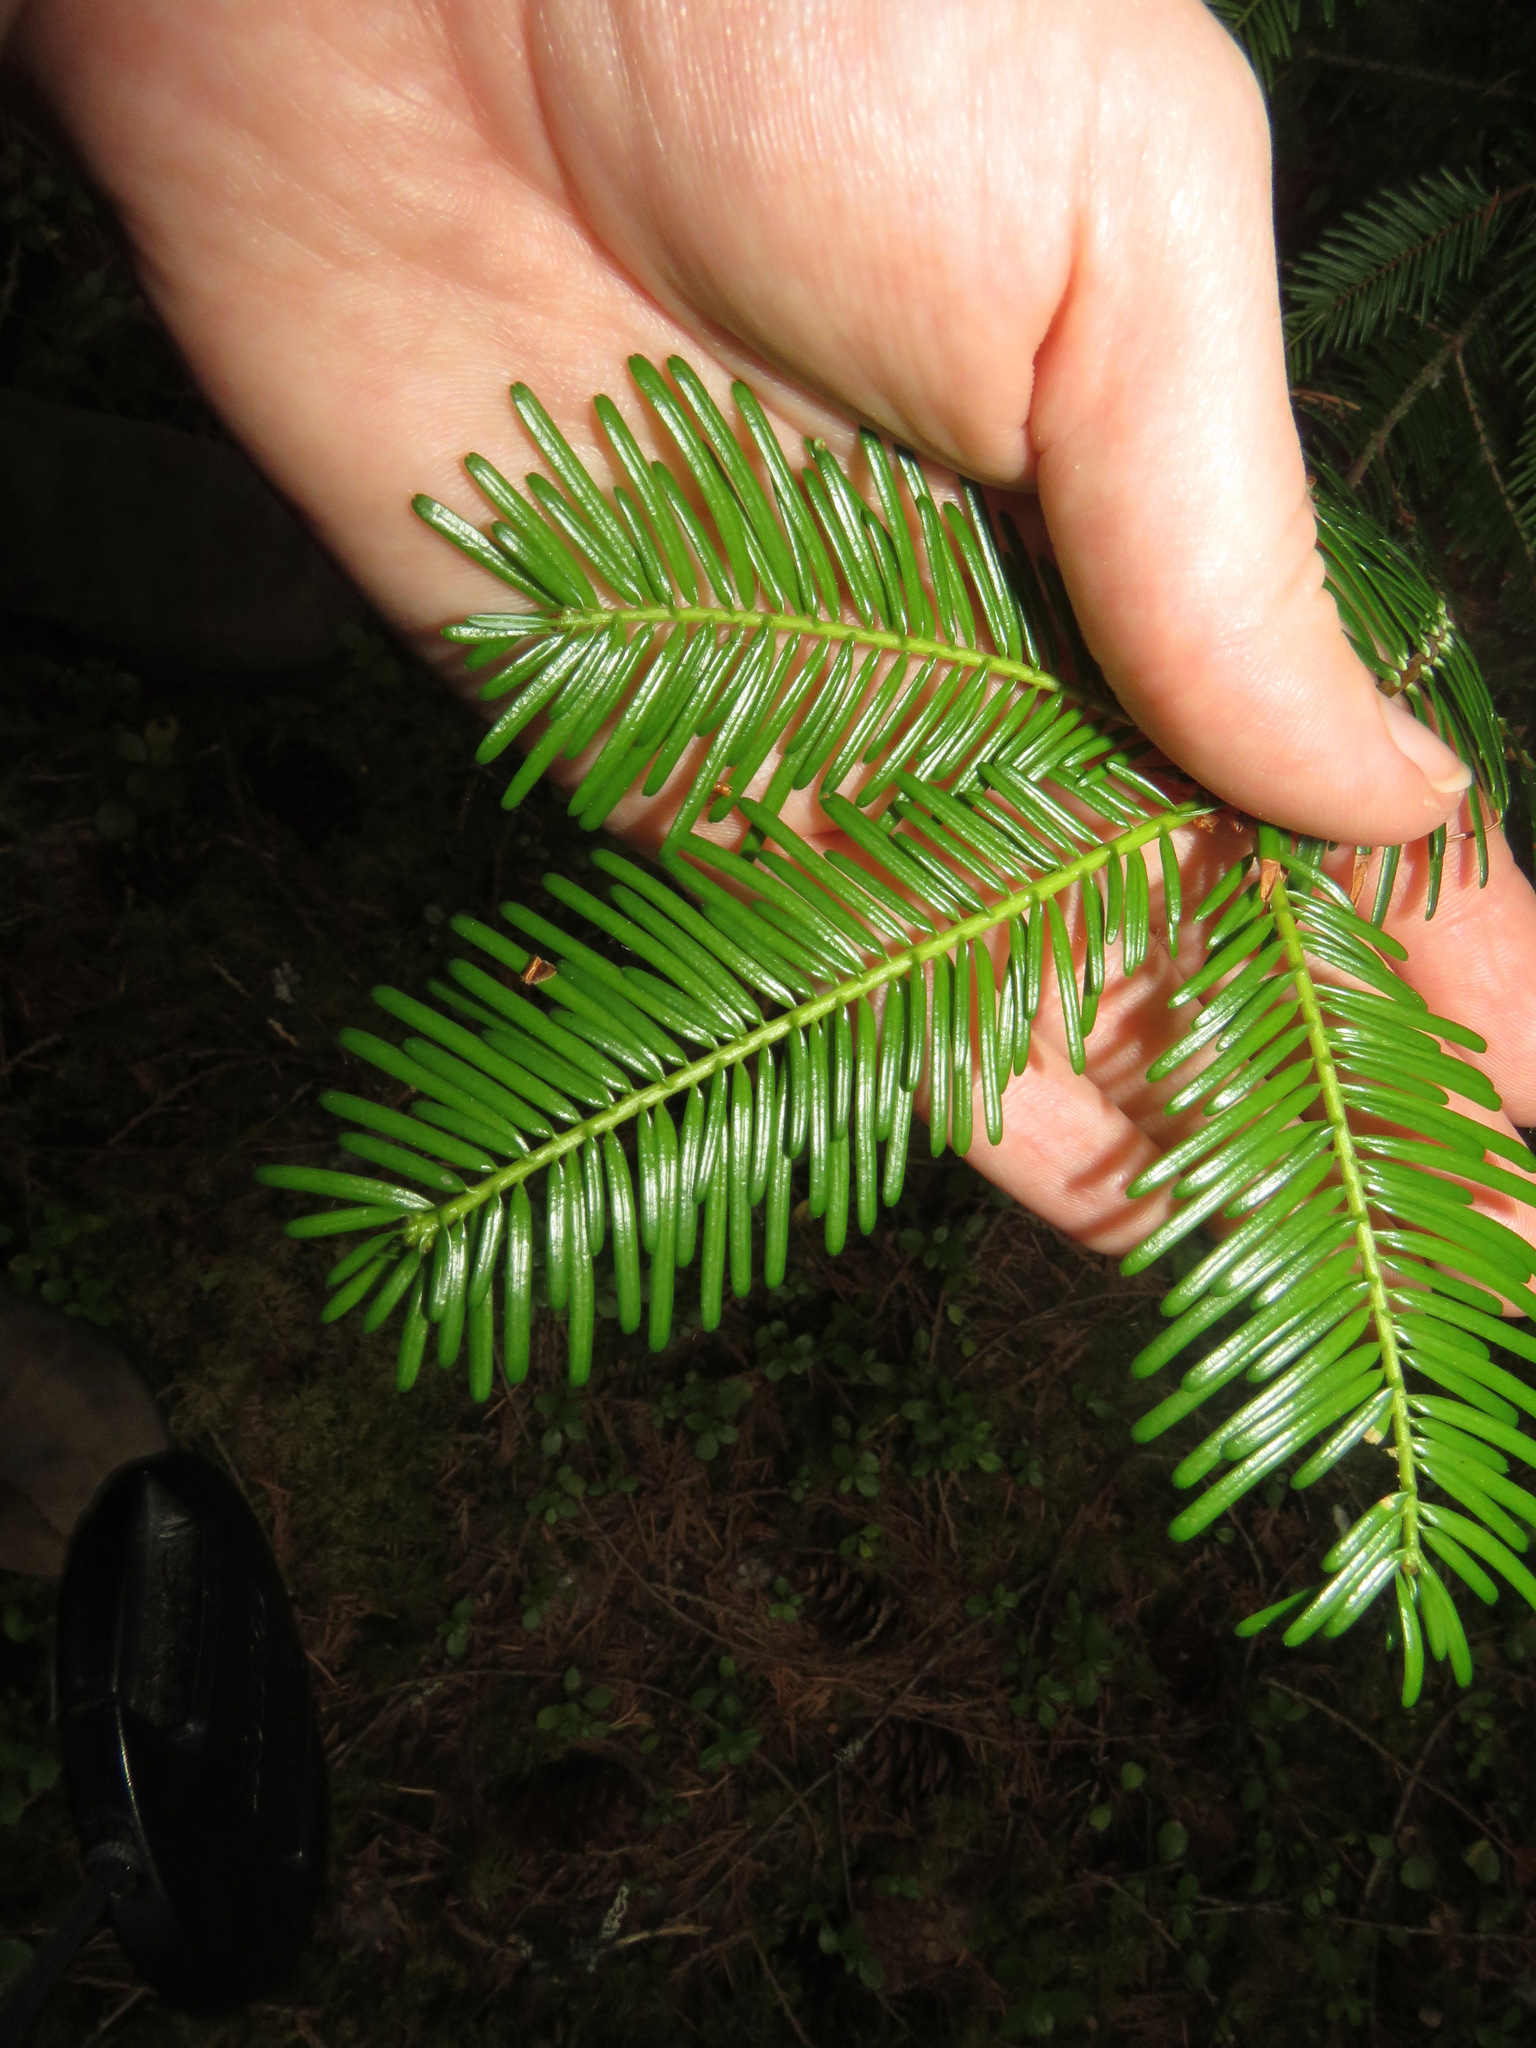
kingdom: Plantae
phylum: Tracheophyta
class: Pinopsida
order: Pinales
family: Pinaceae
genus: Abies
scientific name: Abies grandis
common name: Giant fir
